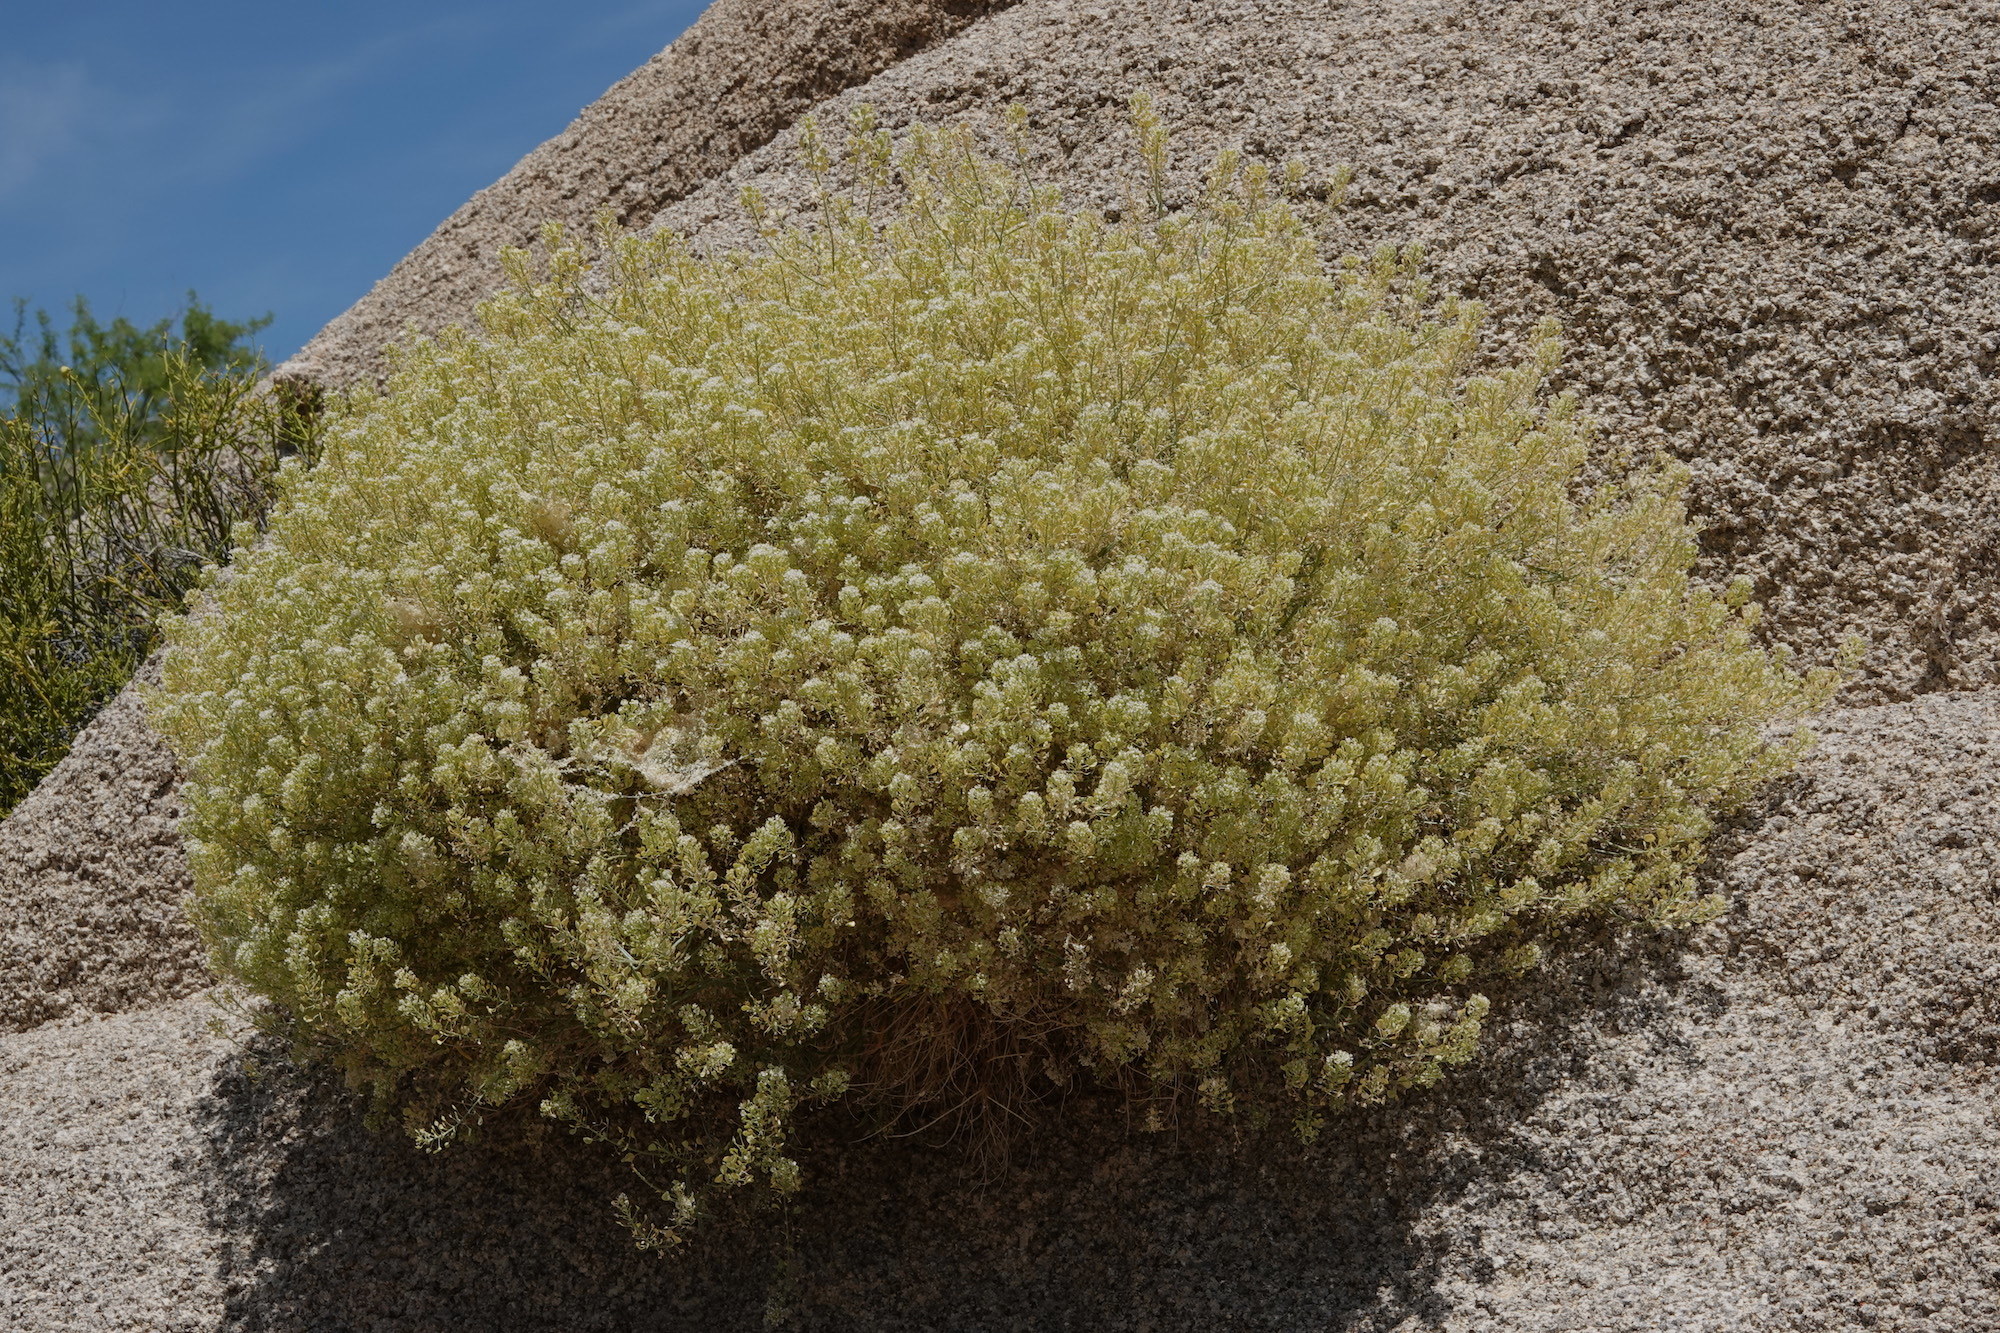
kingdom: Plantae
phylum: Tracheophyta
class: Magnoliopsida
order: Brassicales
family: Brassicaceae
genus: Lepidium
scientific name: Lepidium fremontii
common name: Fremont's pepperwort
